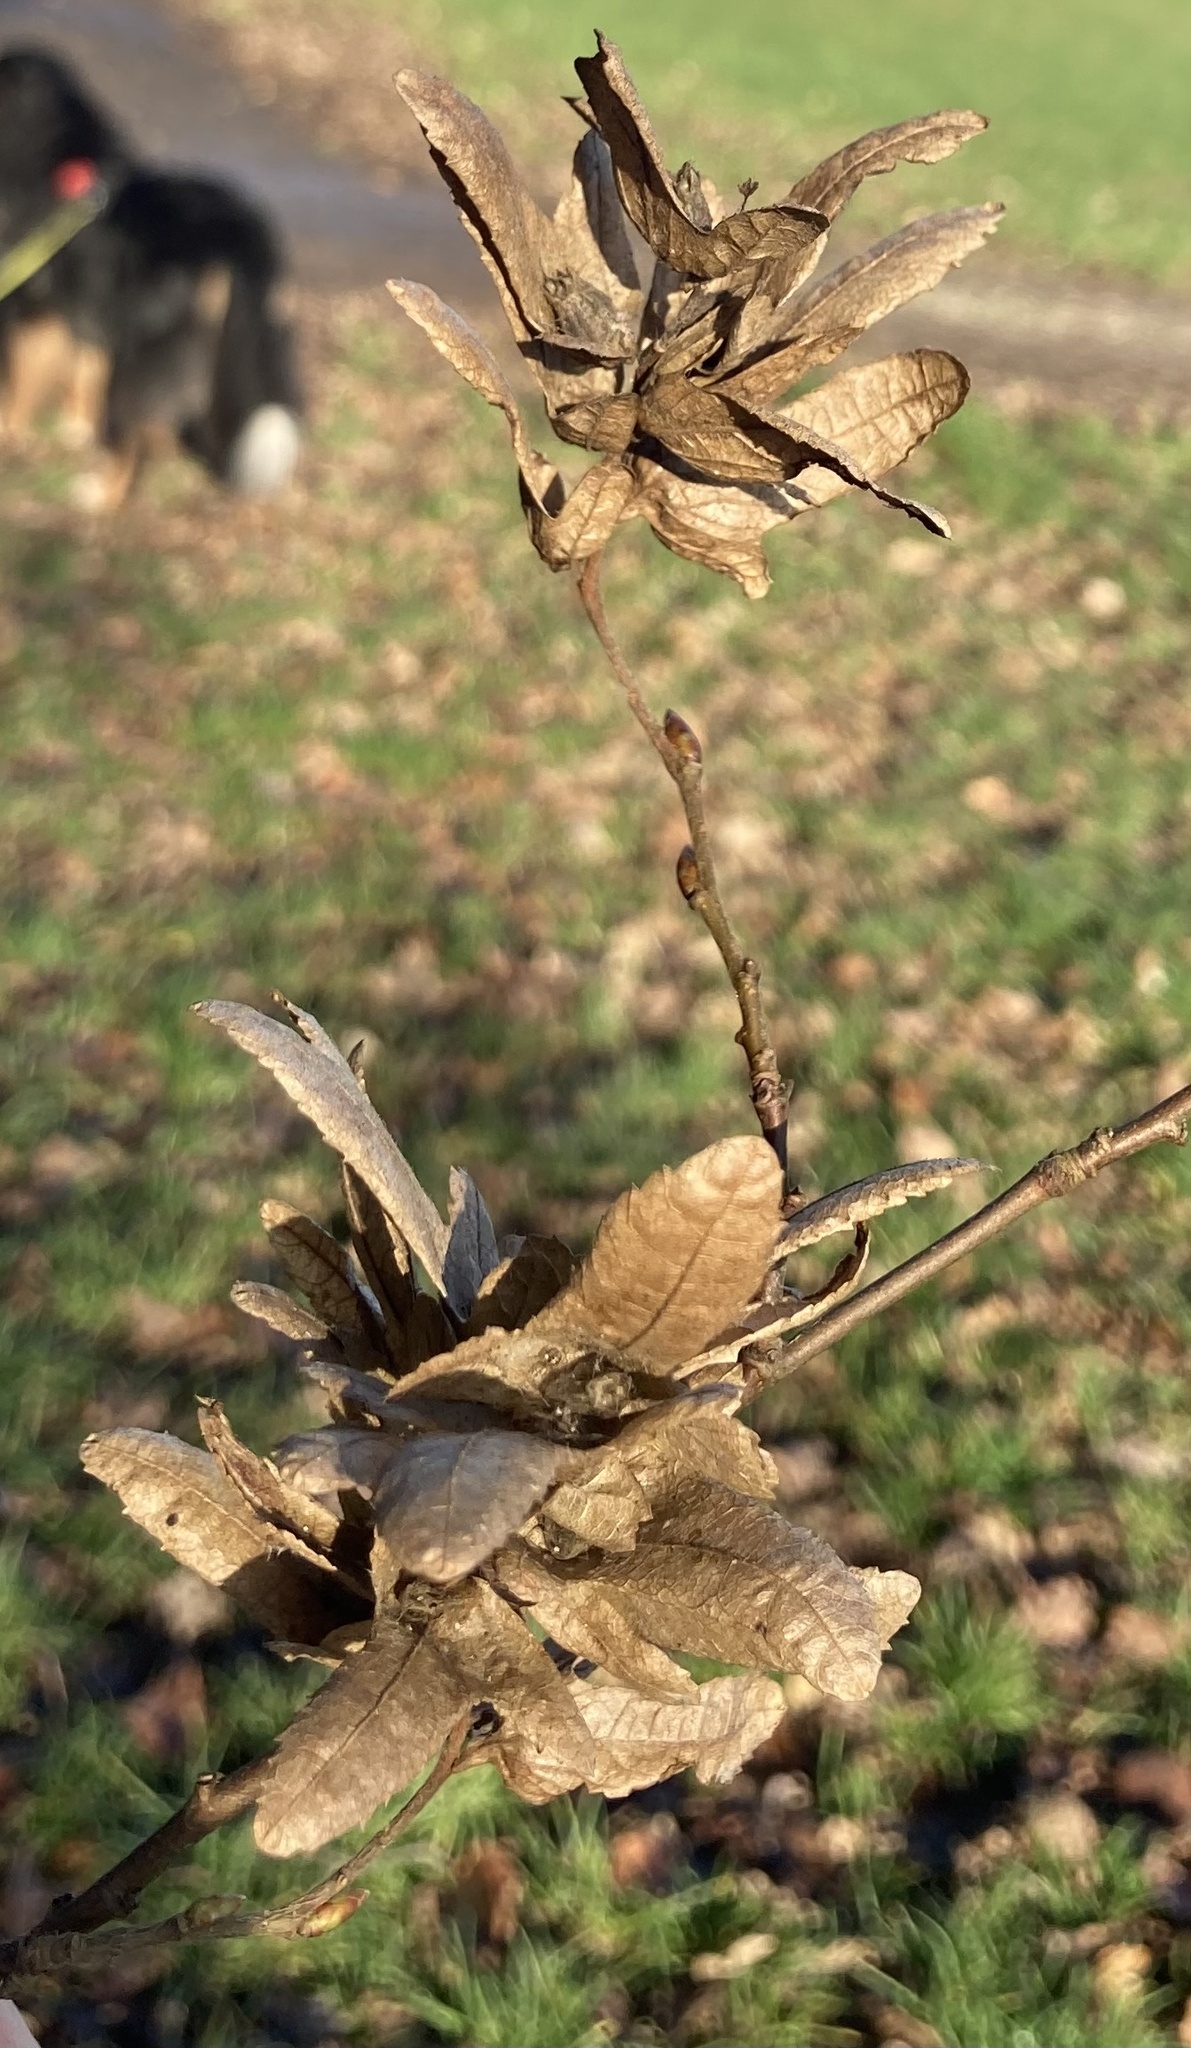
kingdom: Plantae
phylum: Tracheophyta
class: Magnoliopsida
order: Fagales
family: Betulaceae
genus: Carpinus
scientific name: Carpinus betulus
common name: Hornbeam
